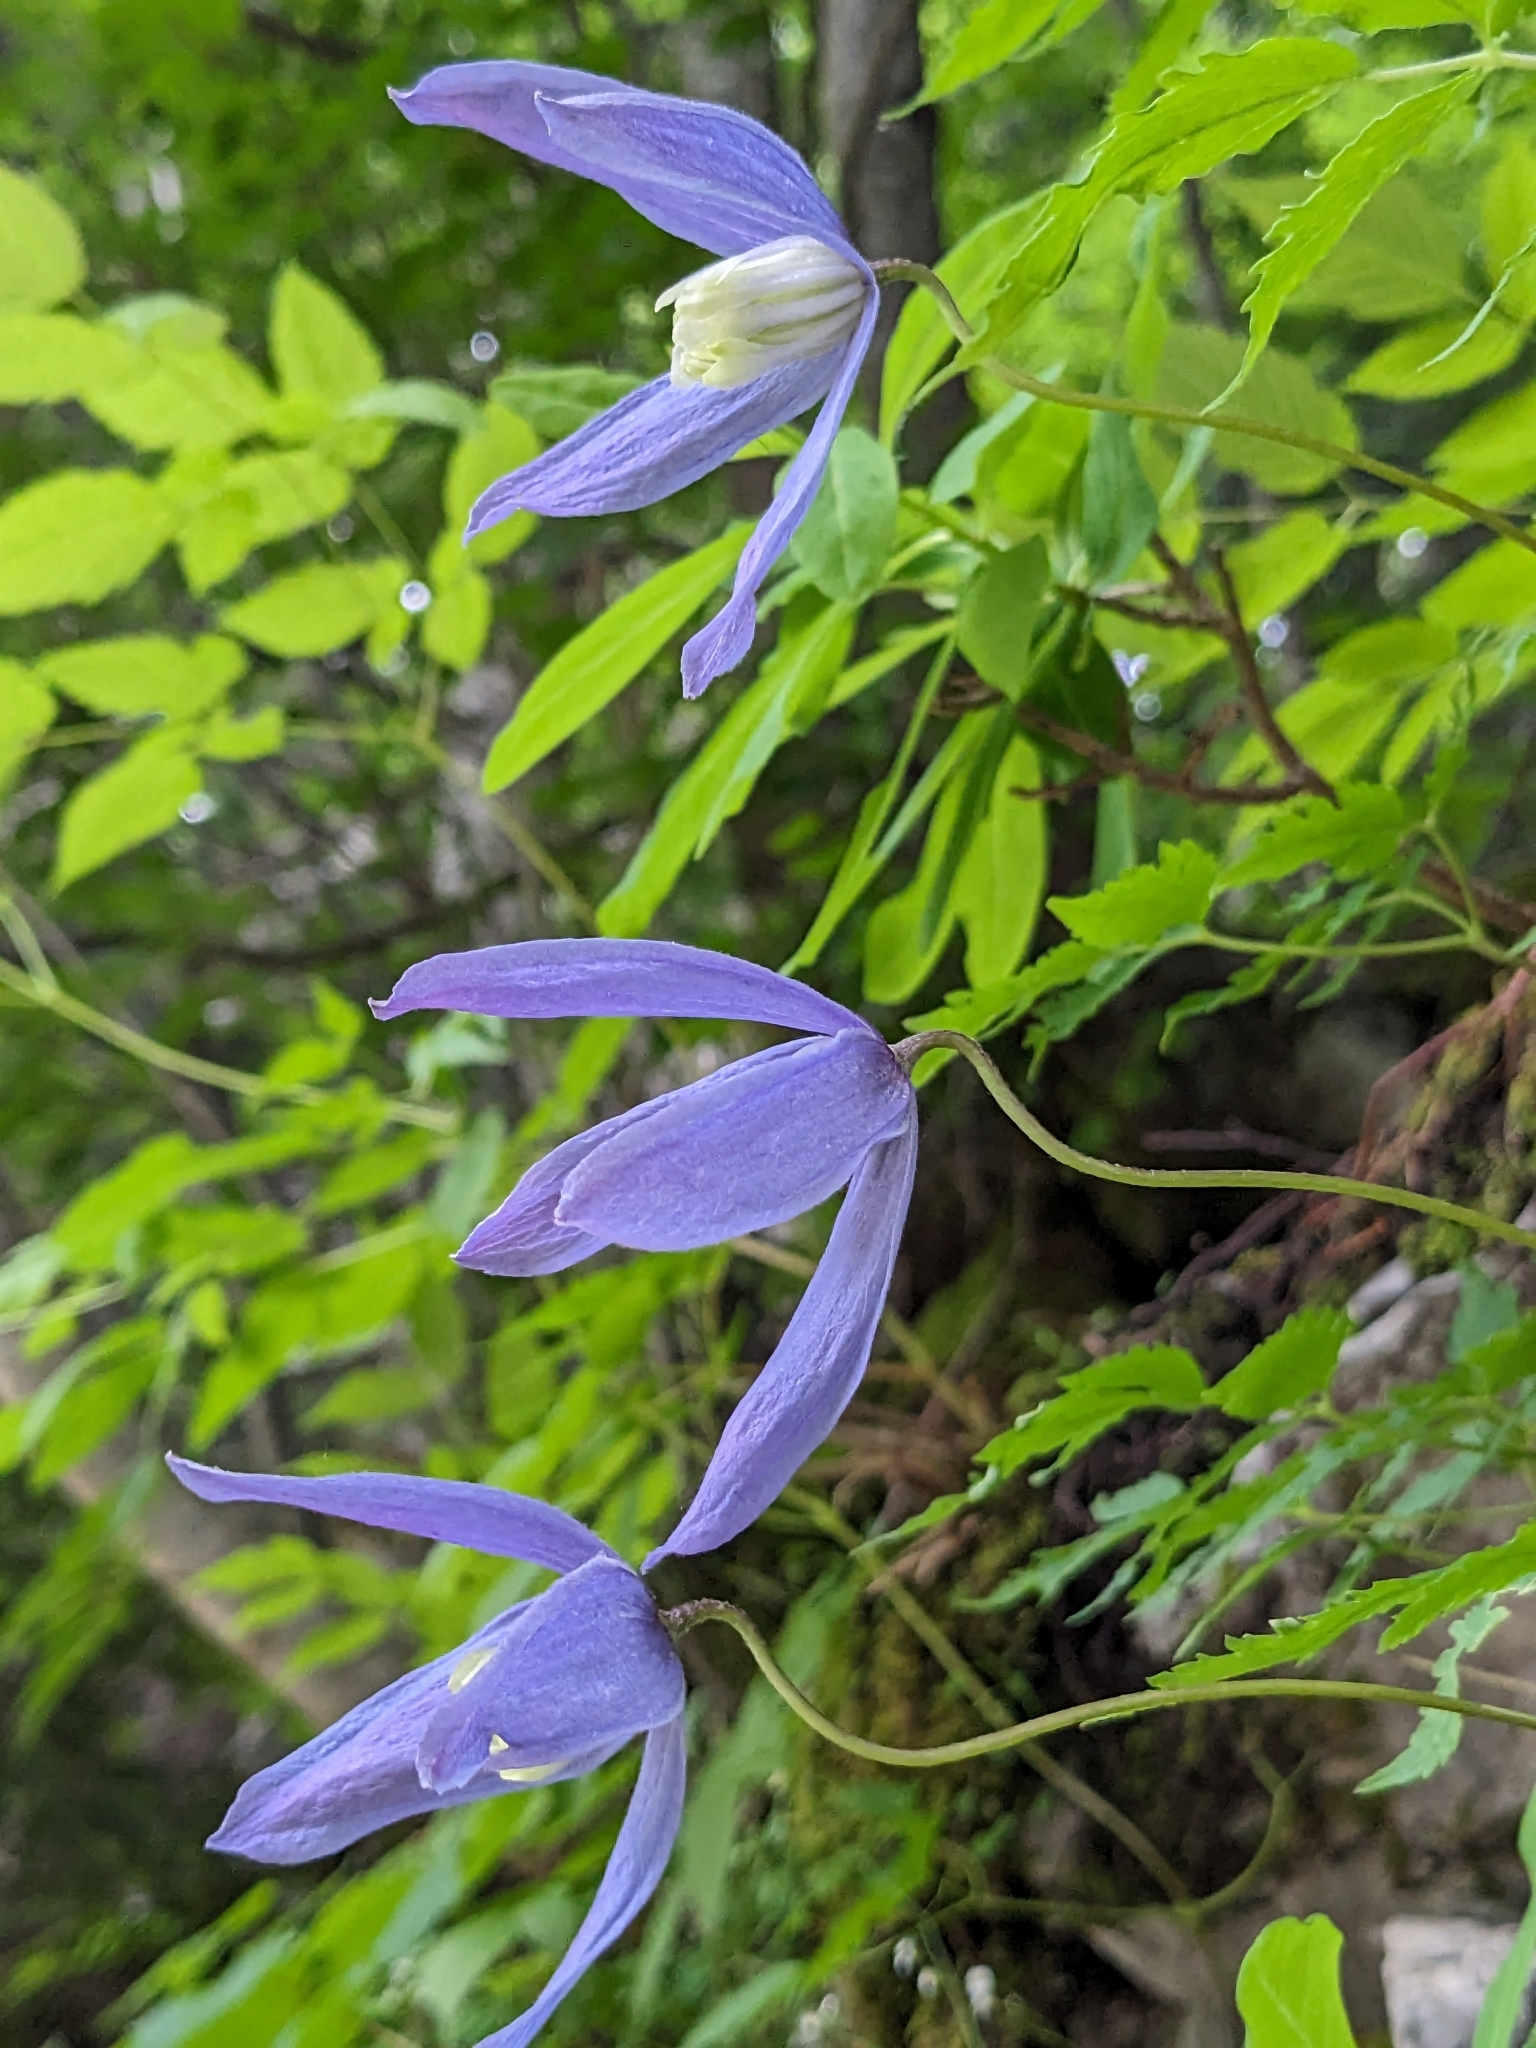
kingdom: Plantae
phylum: Tracheophyta
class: Magnoliopsida
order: Ranunculales
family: Ranunculaceae
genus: Clematis
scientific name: Clematis alpina
